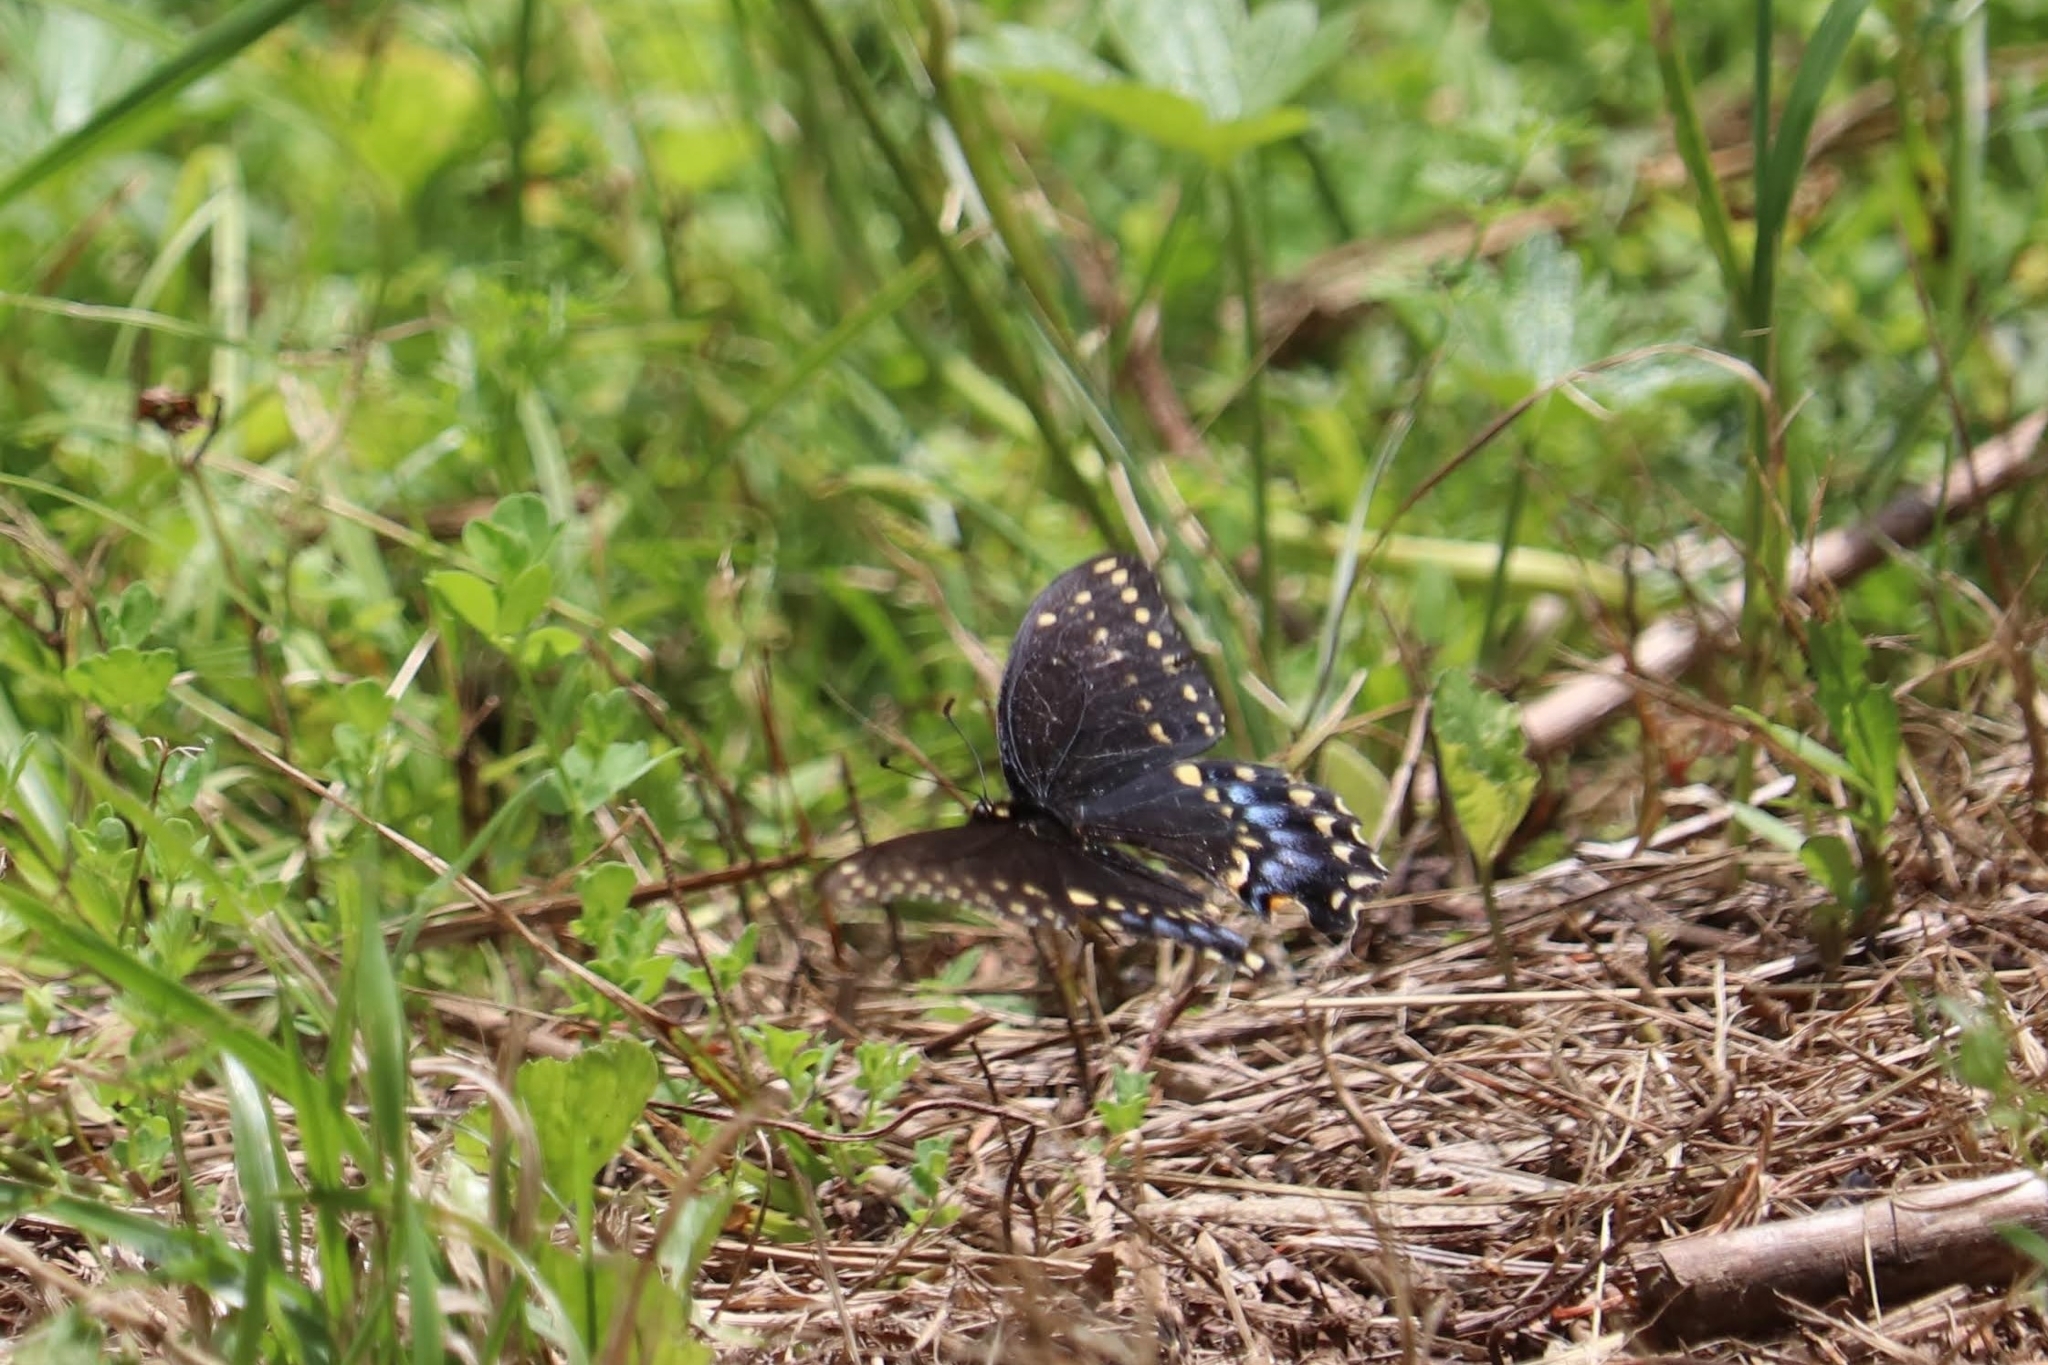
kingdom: Animalia
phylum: Arthropoda
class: Insecta
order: Lepidoptera
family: Papilionidae
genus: Papilio
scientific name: Papilio polyxenes
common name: Black swallowtail
